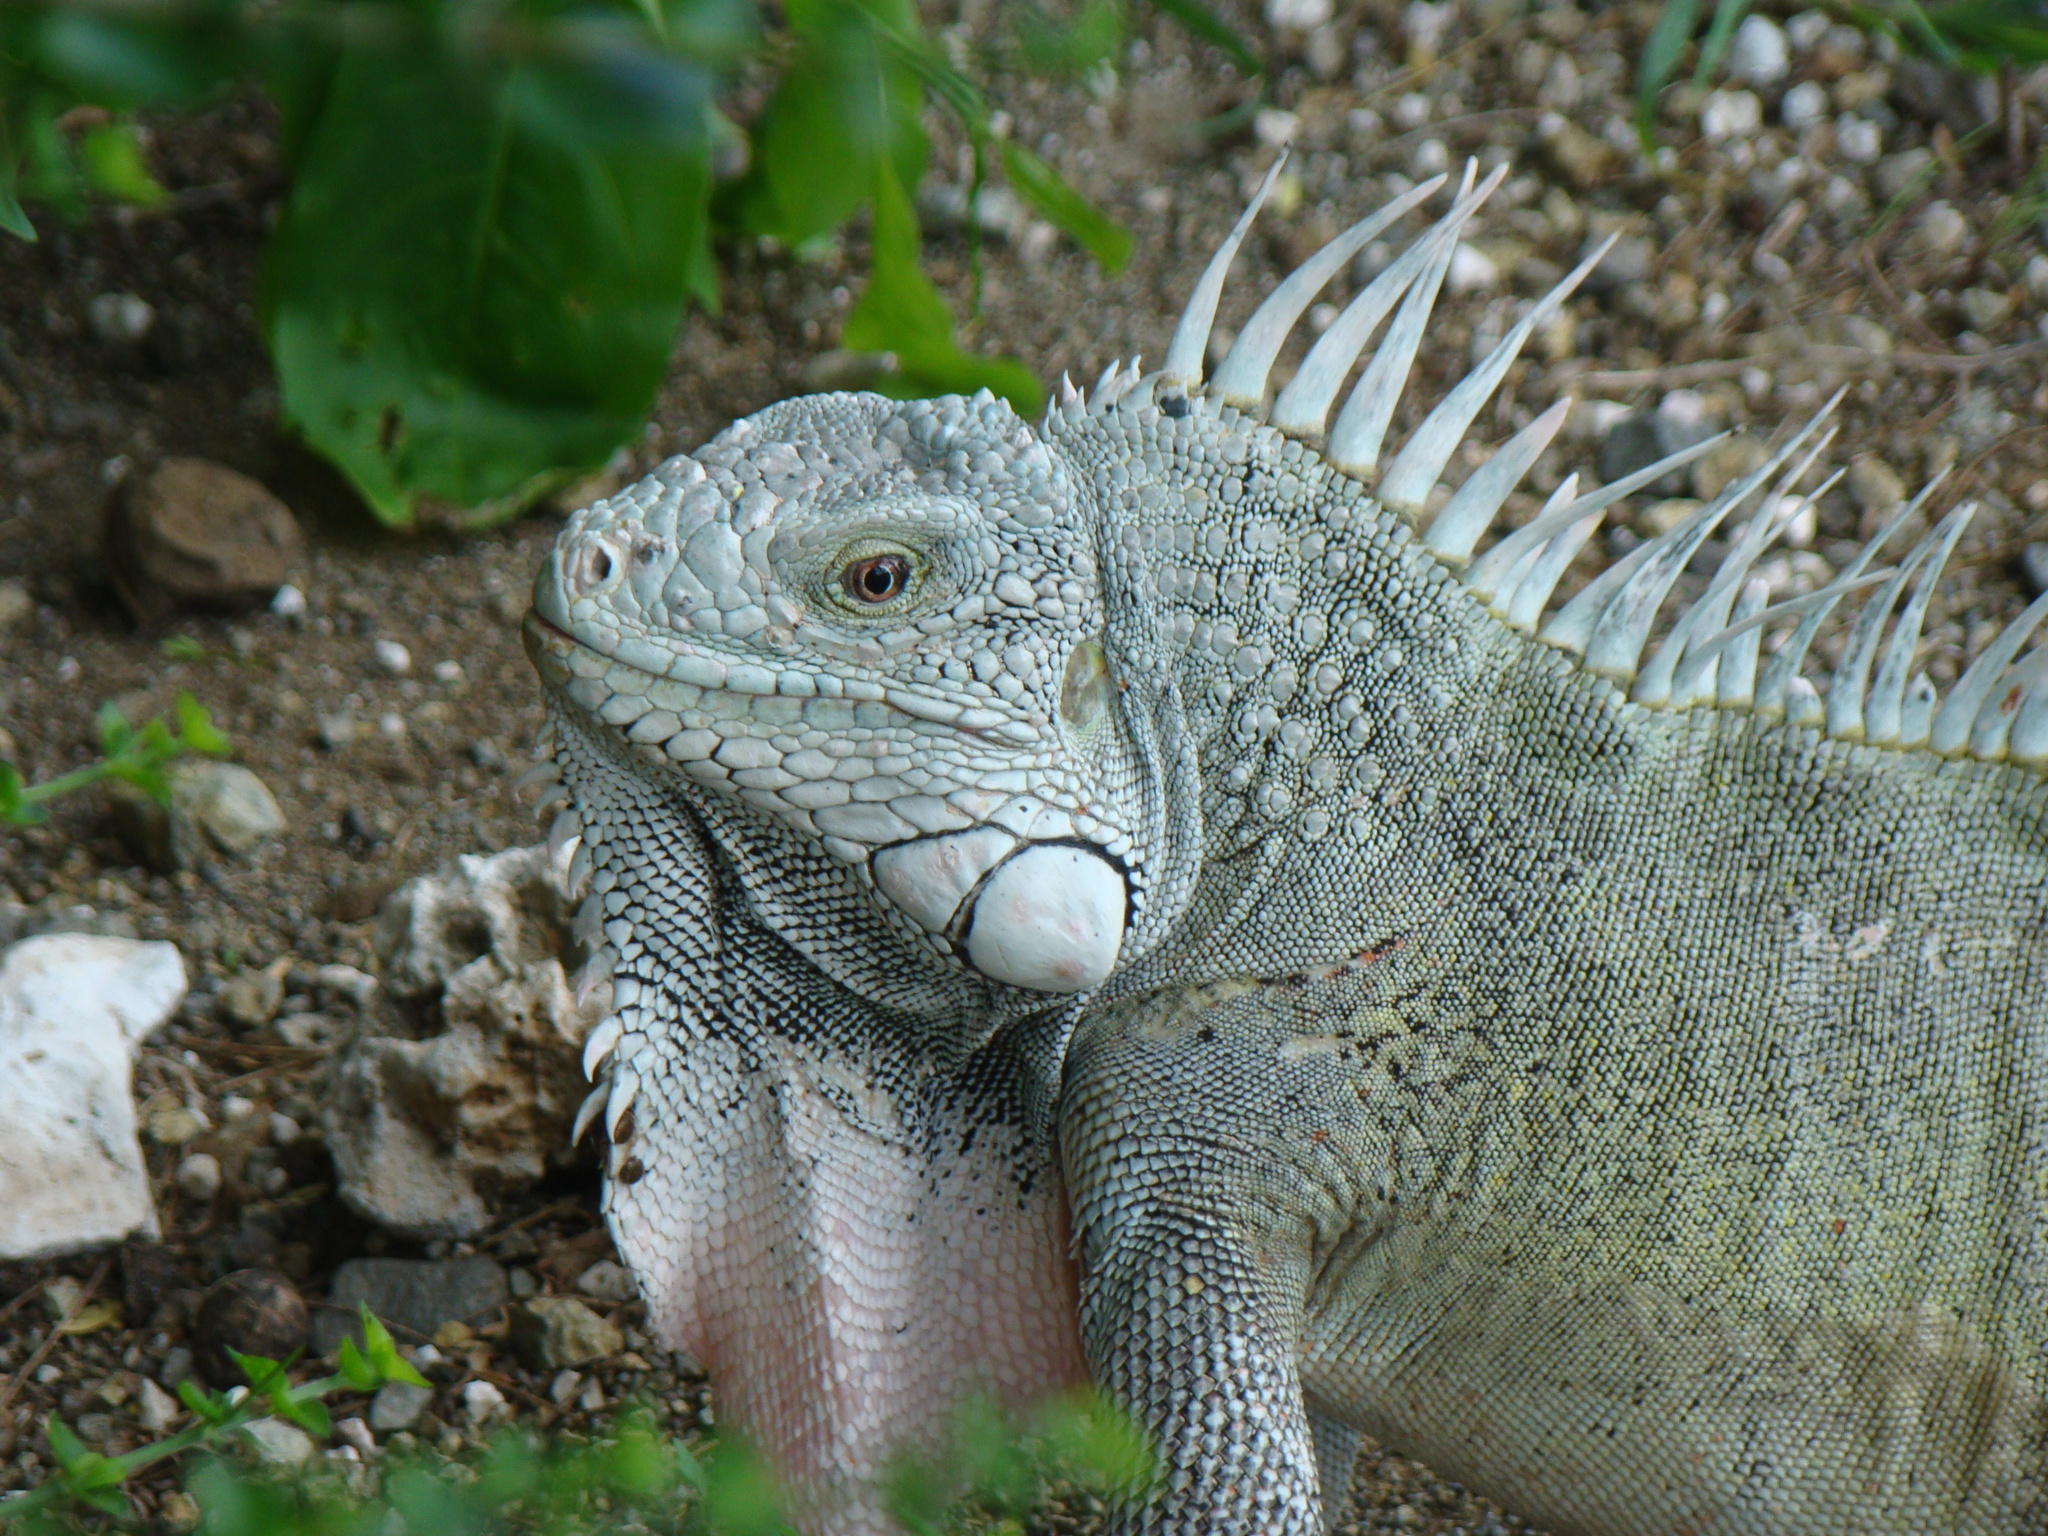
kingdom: Animalia
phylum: Chordata
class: Squamata
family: Iguanidae
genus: Iguana
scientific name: Iguana iguana
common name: Green iguana
